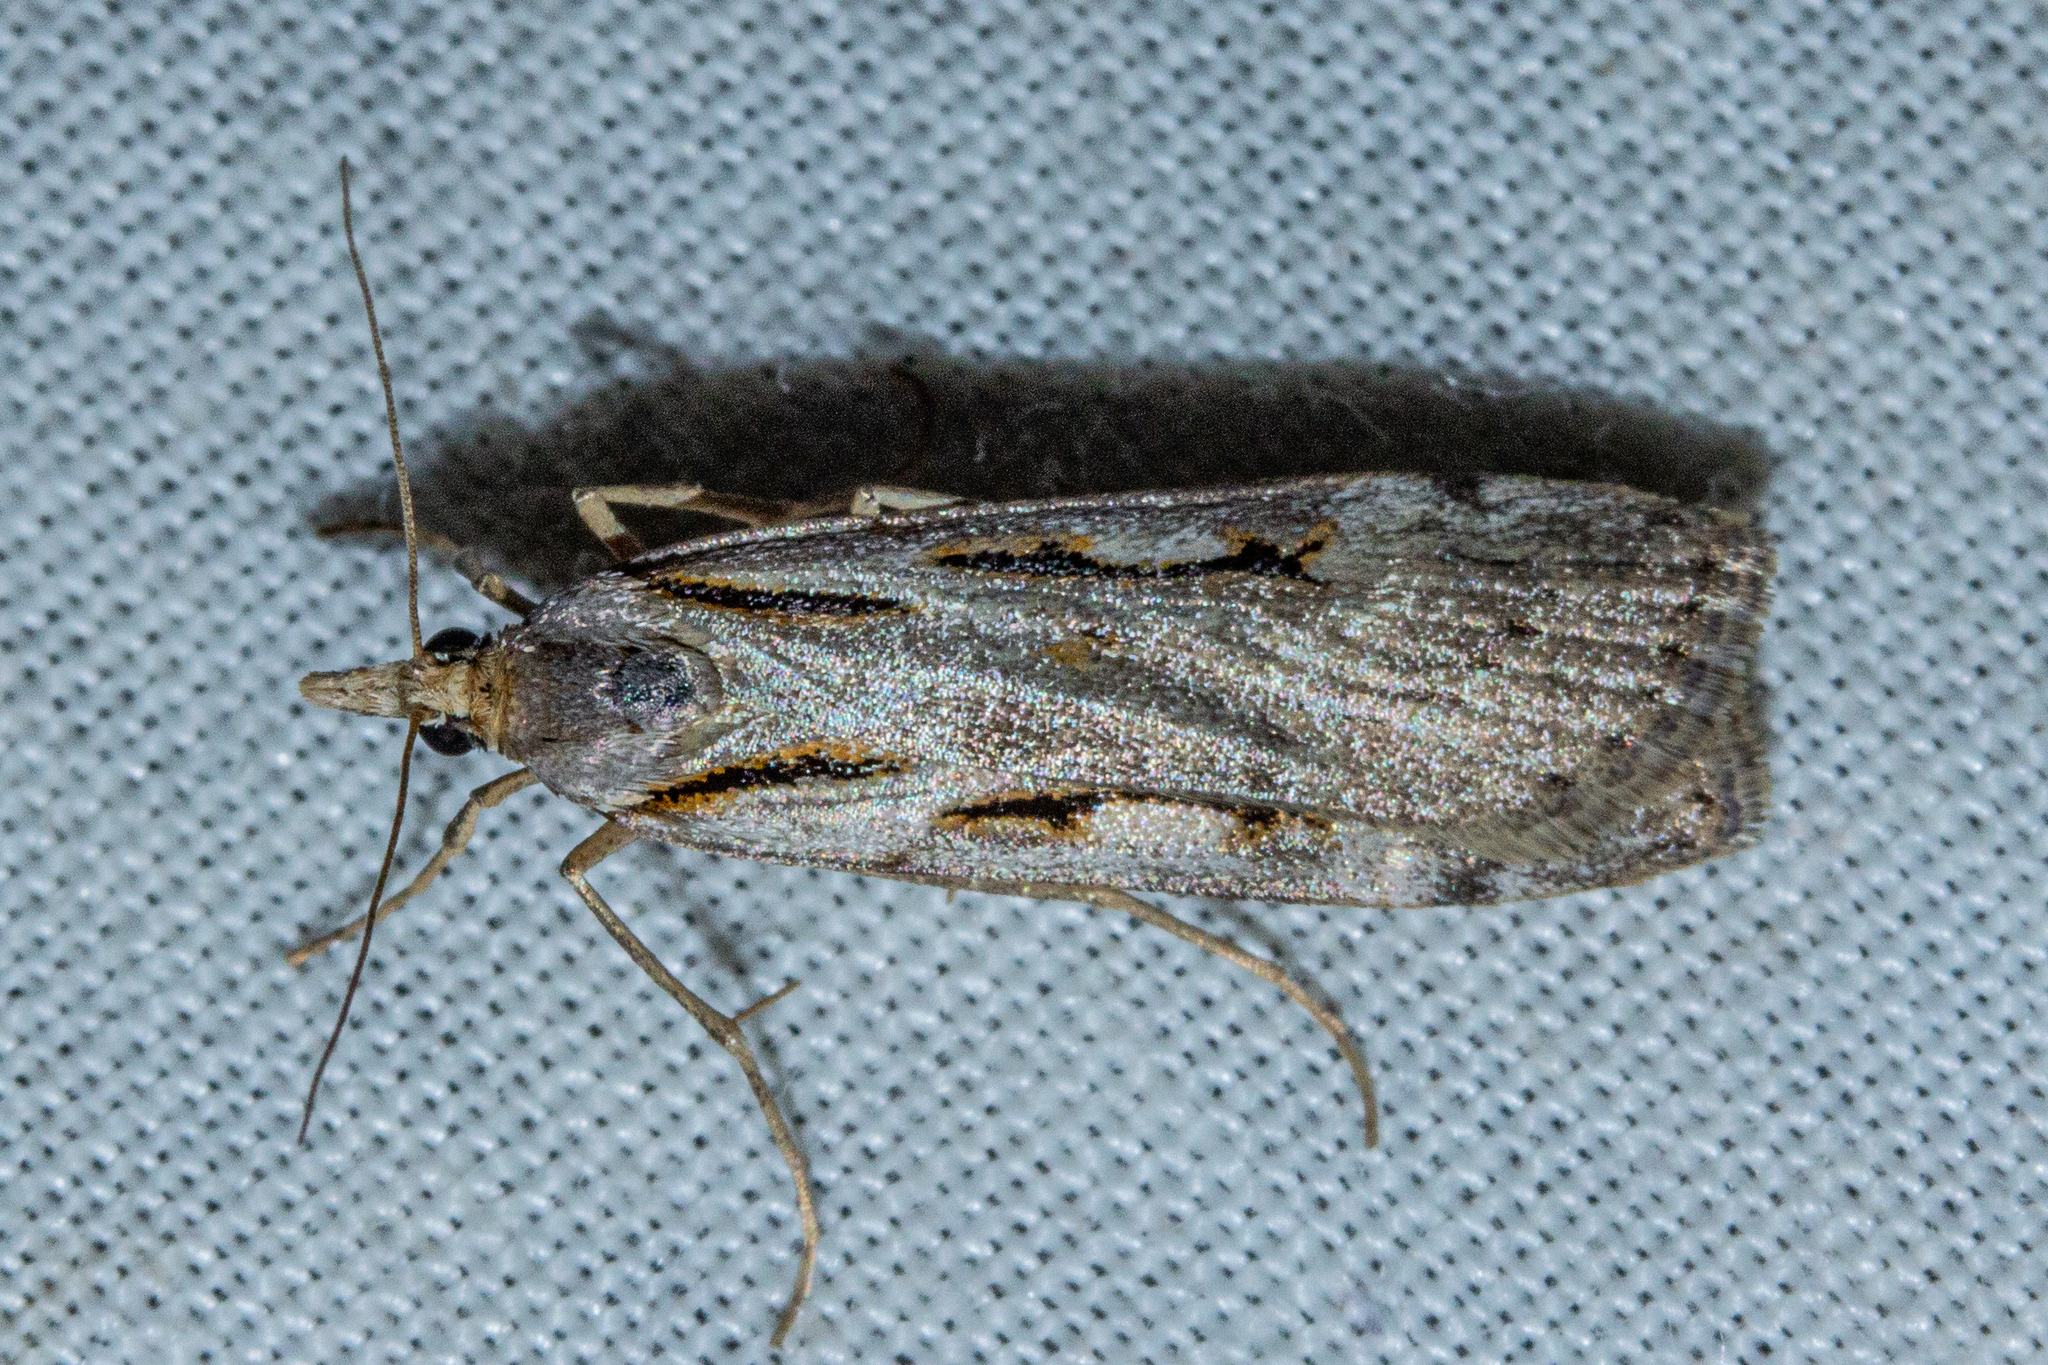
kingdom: Animalia
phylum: Arthropoda
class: Insecta
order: Lepidoptera
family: Crambidae
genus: Scoparia
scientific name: Scoparia rotuellus
